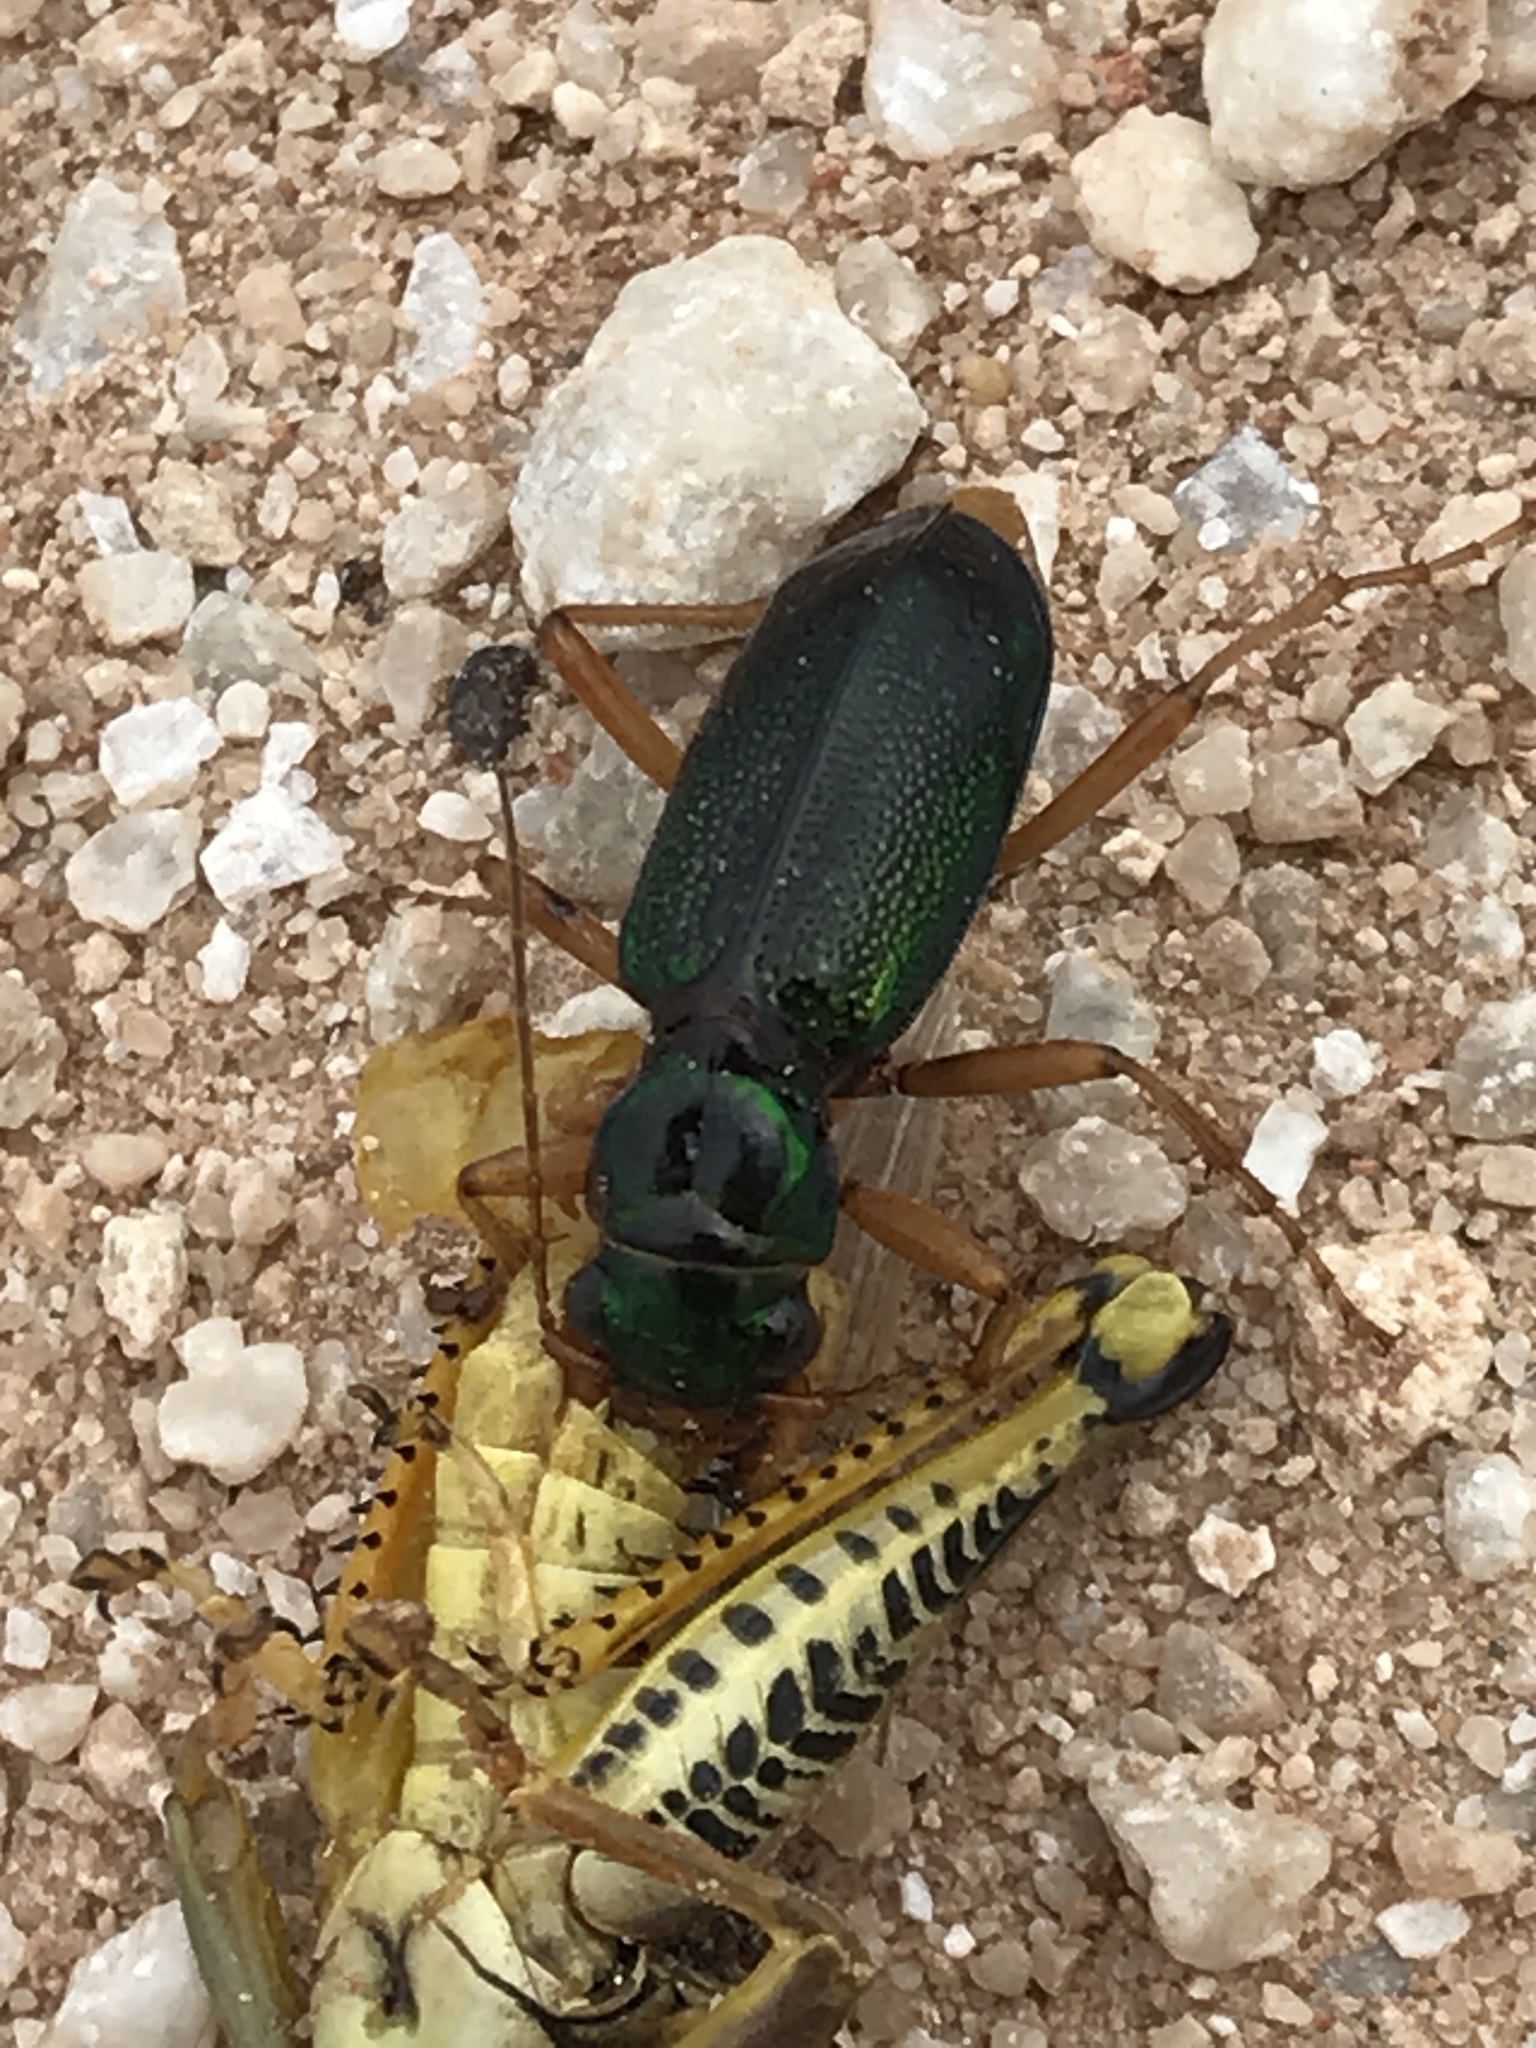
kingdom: Animalia
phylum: Arthropoda
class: Insecta
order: Coleoptera
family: Carabidae
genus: Tetracha
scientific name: Tetracha virginica
